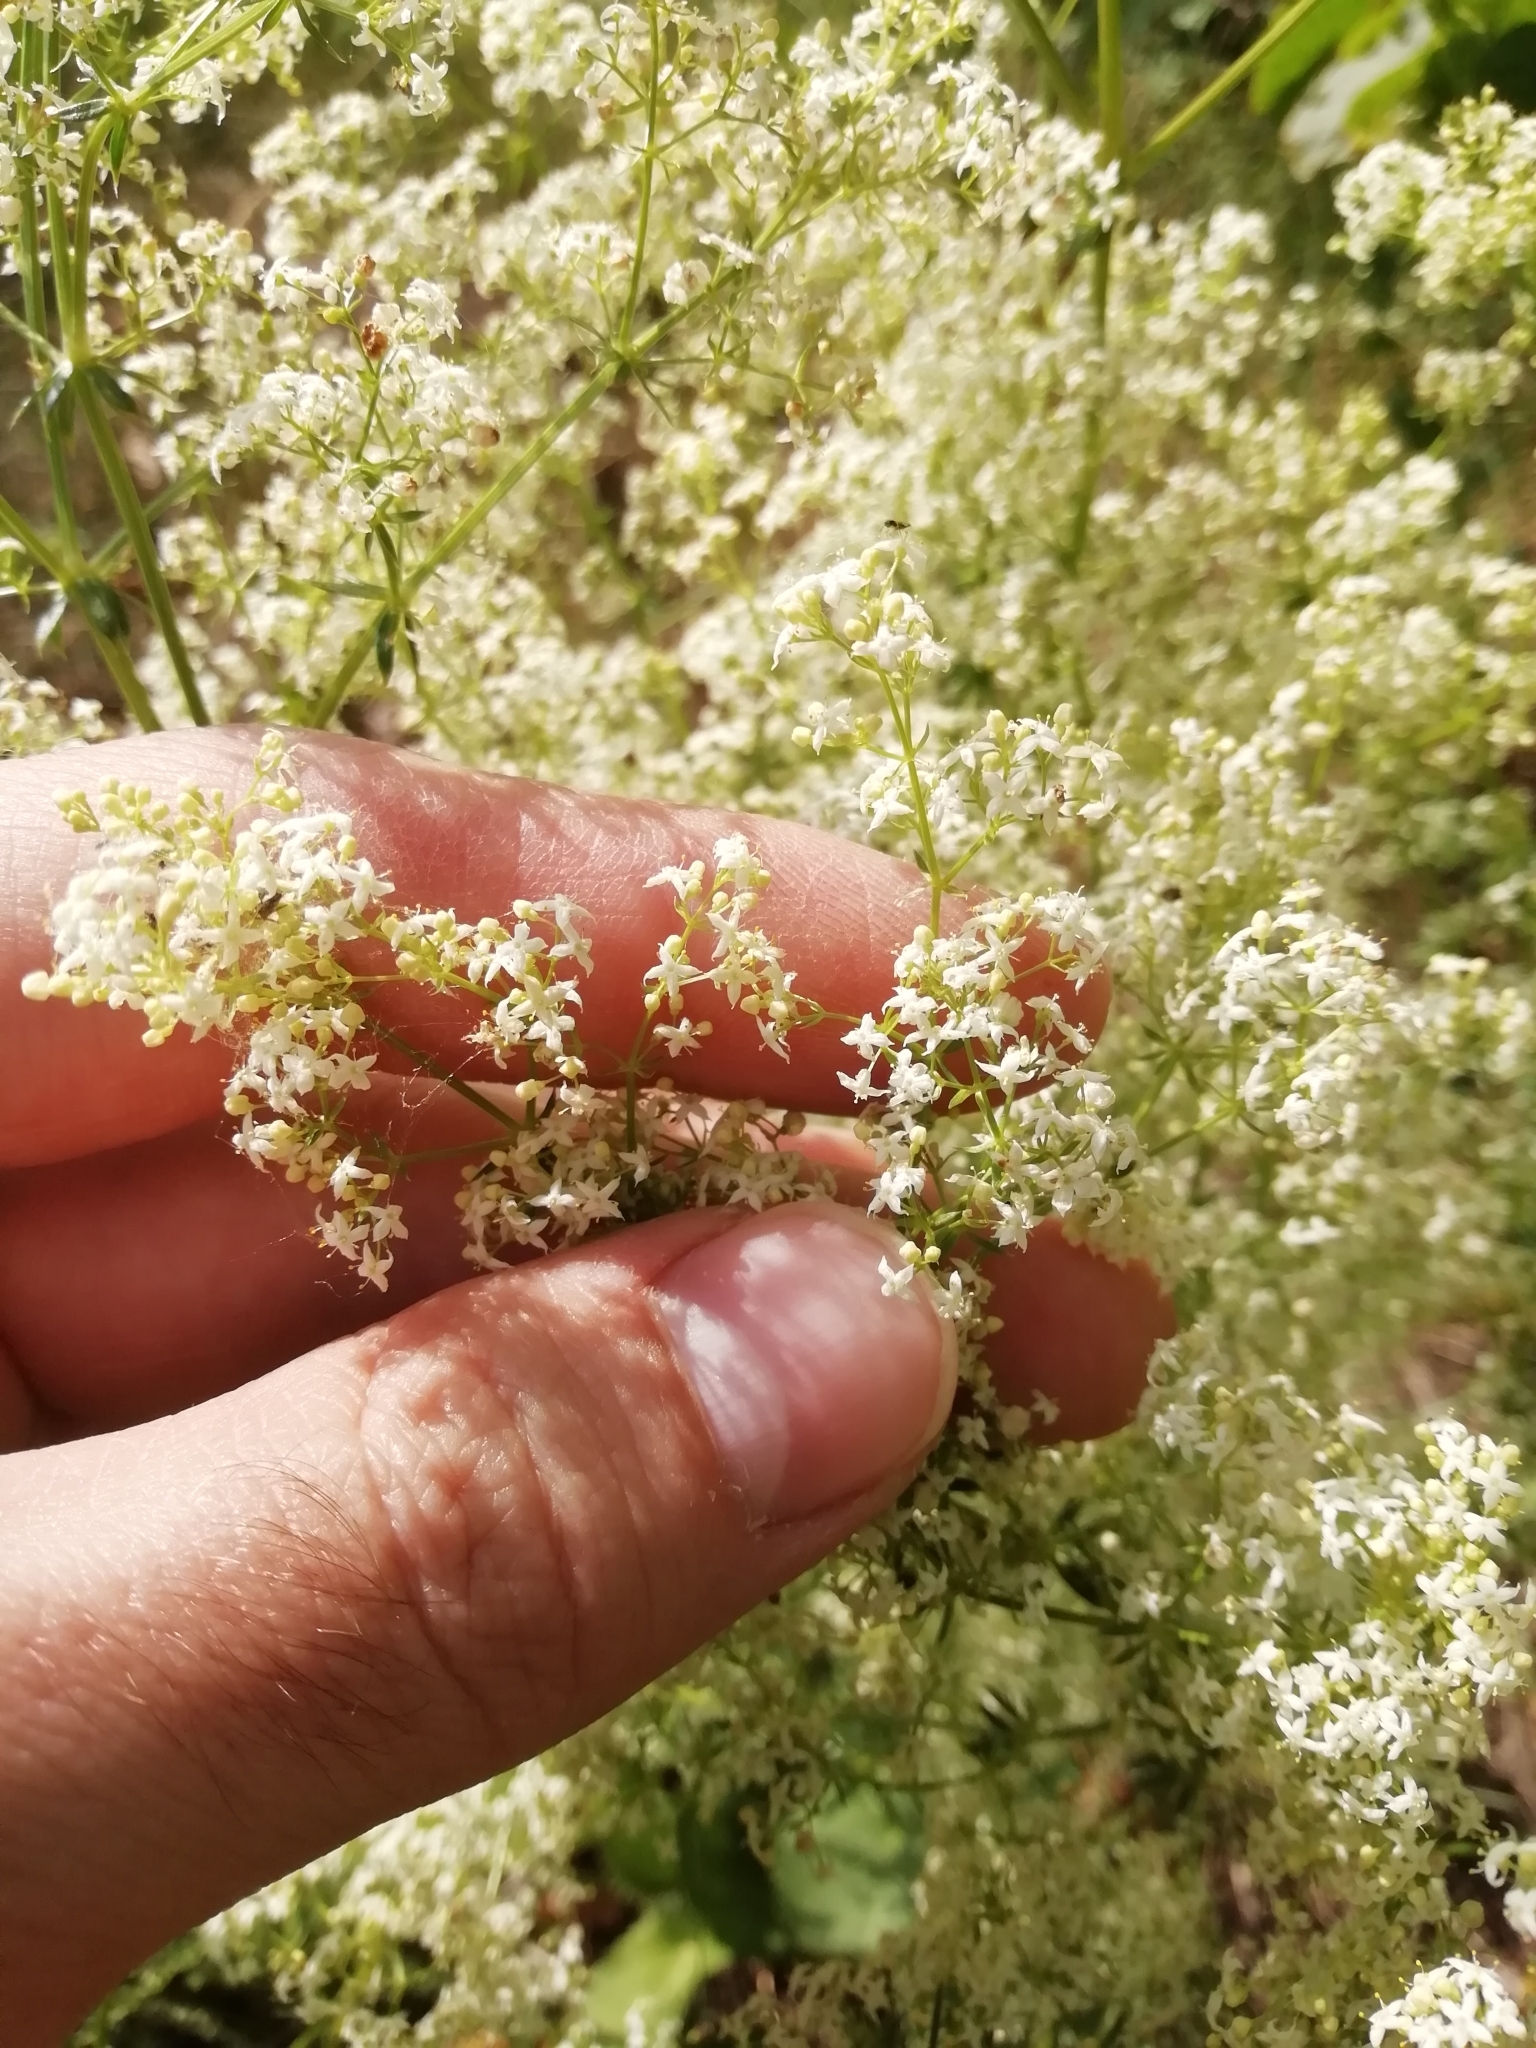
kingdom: Plantae
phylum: Tracheophyta
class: Magnoliopsida
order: Gentianales
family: Rubiaceae
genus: Galium
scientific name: Galium mollugo
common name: Hedge bedstraw
